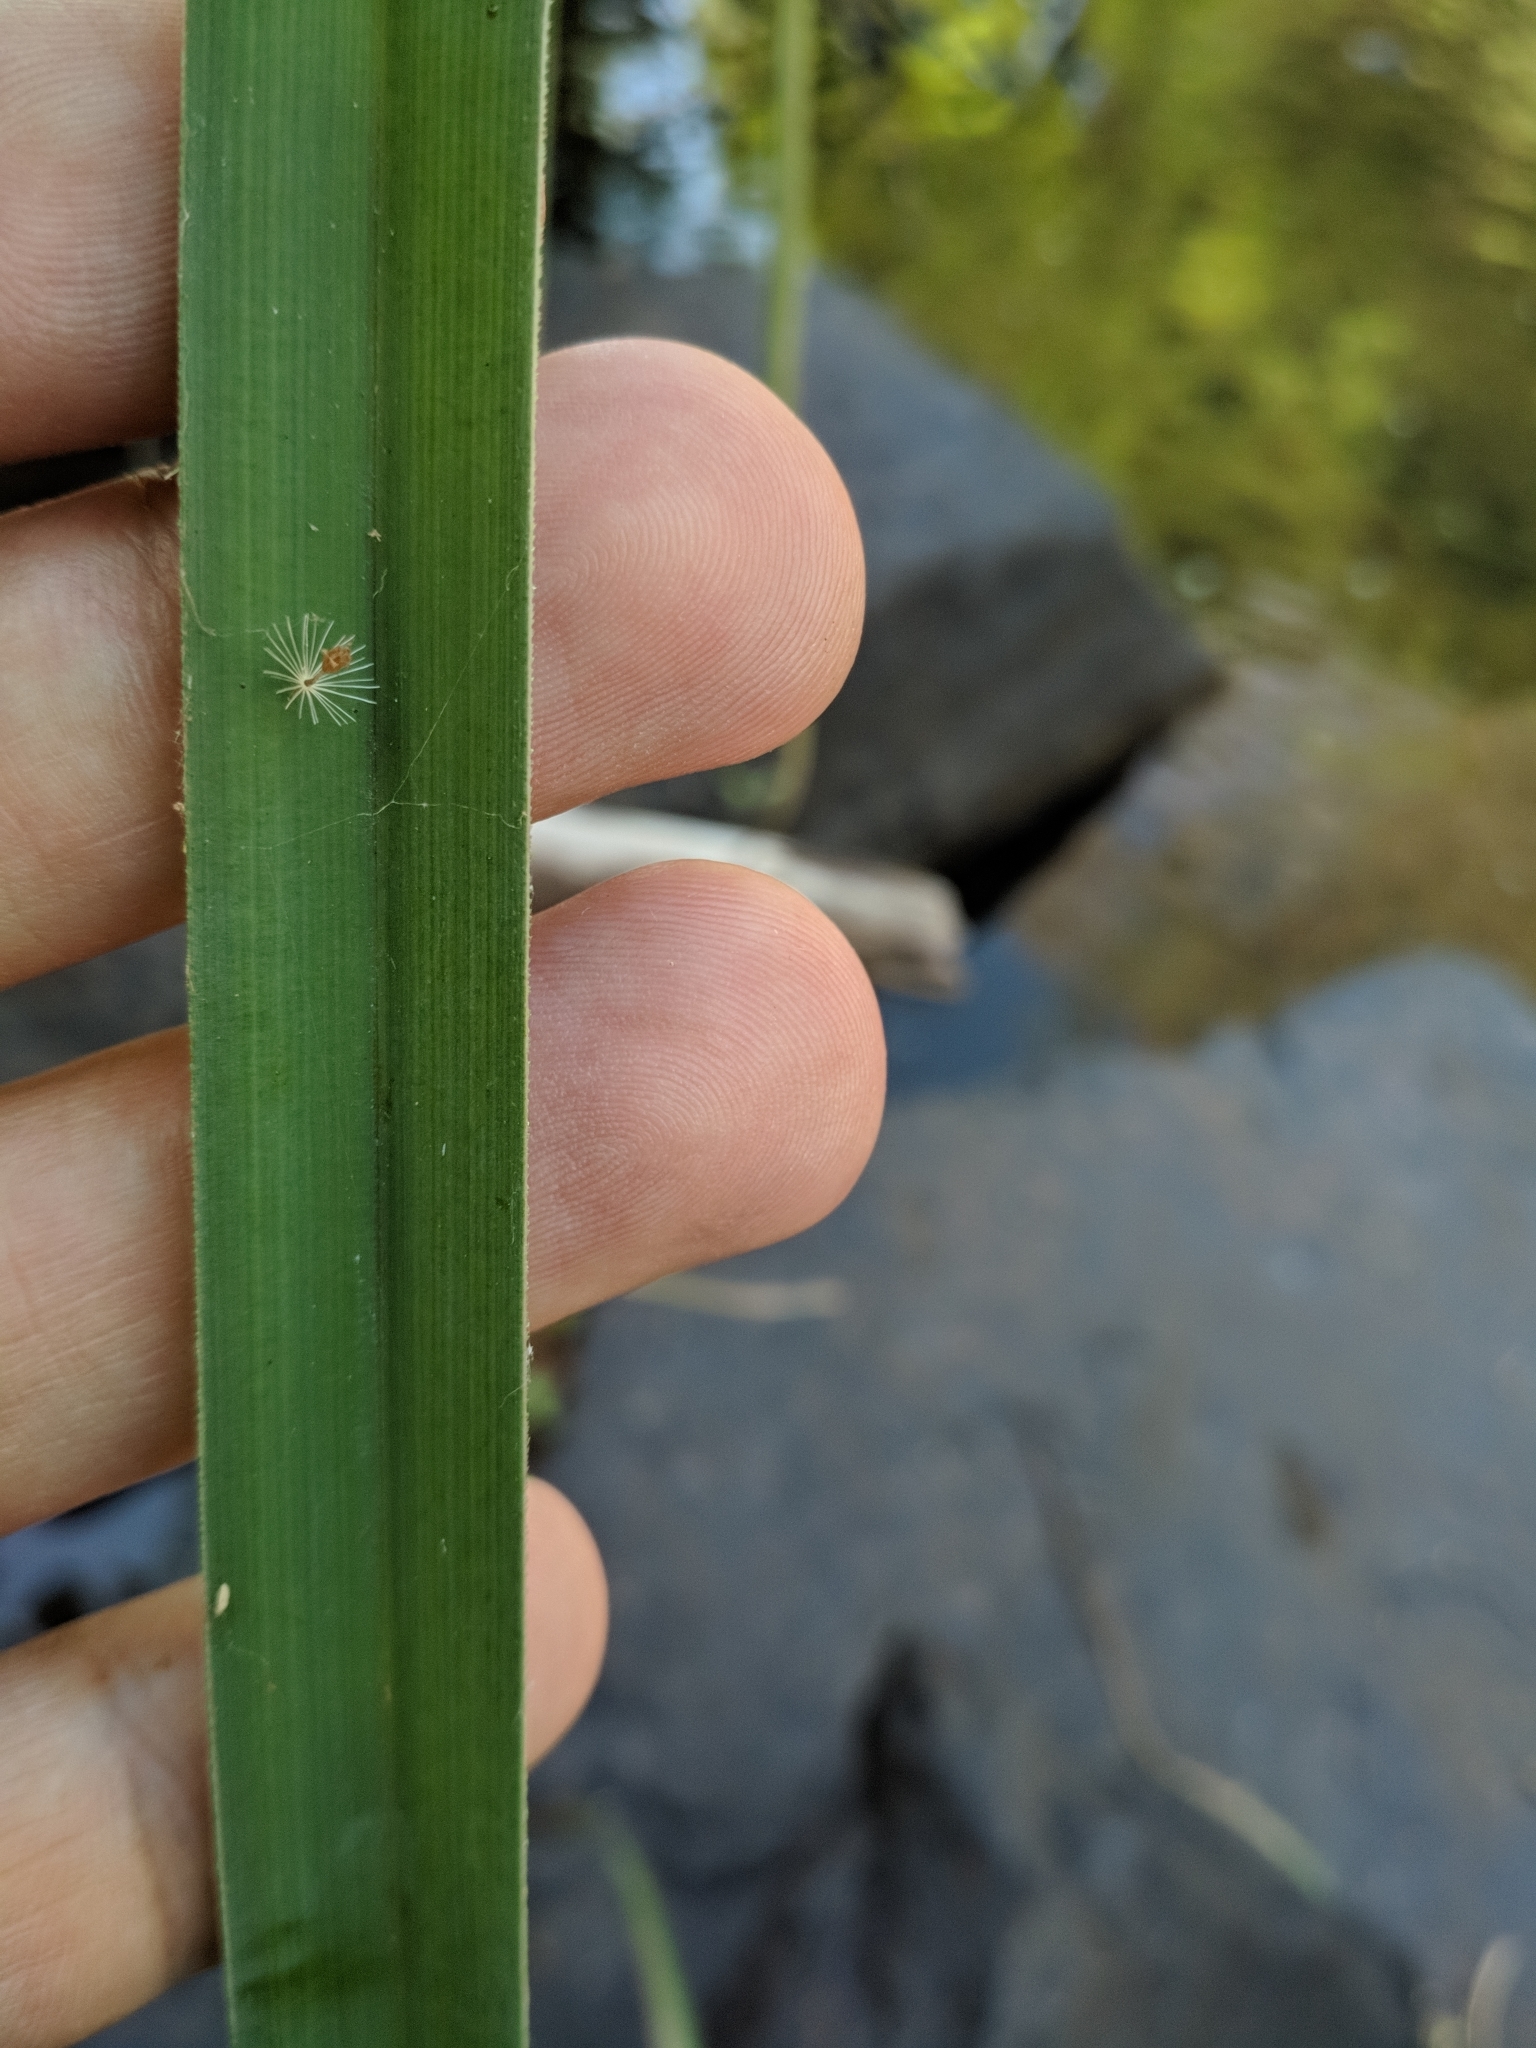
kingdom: Plantae
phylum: Tracheophyta
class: Liliopsida
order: Poales
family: Cyperaceae
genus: Cyperus
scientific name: Cyperus ligularis
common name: Swamp flat sedge
